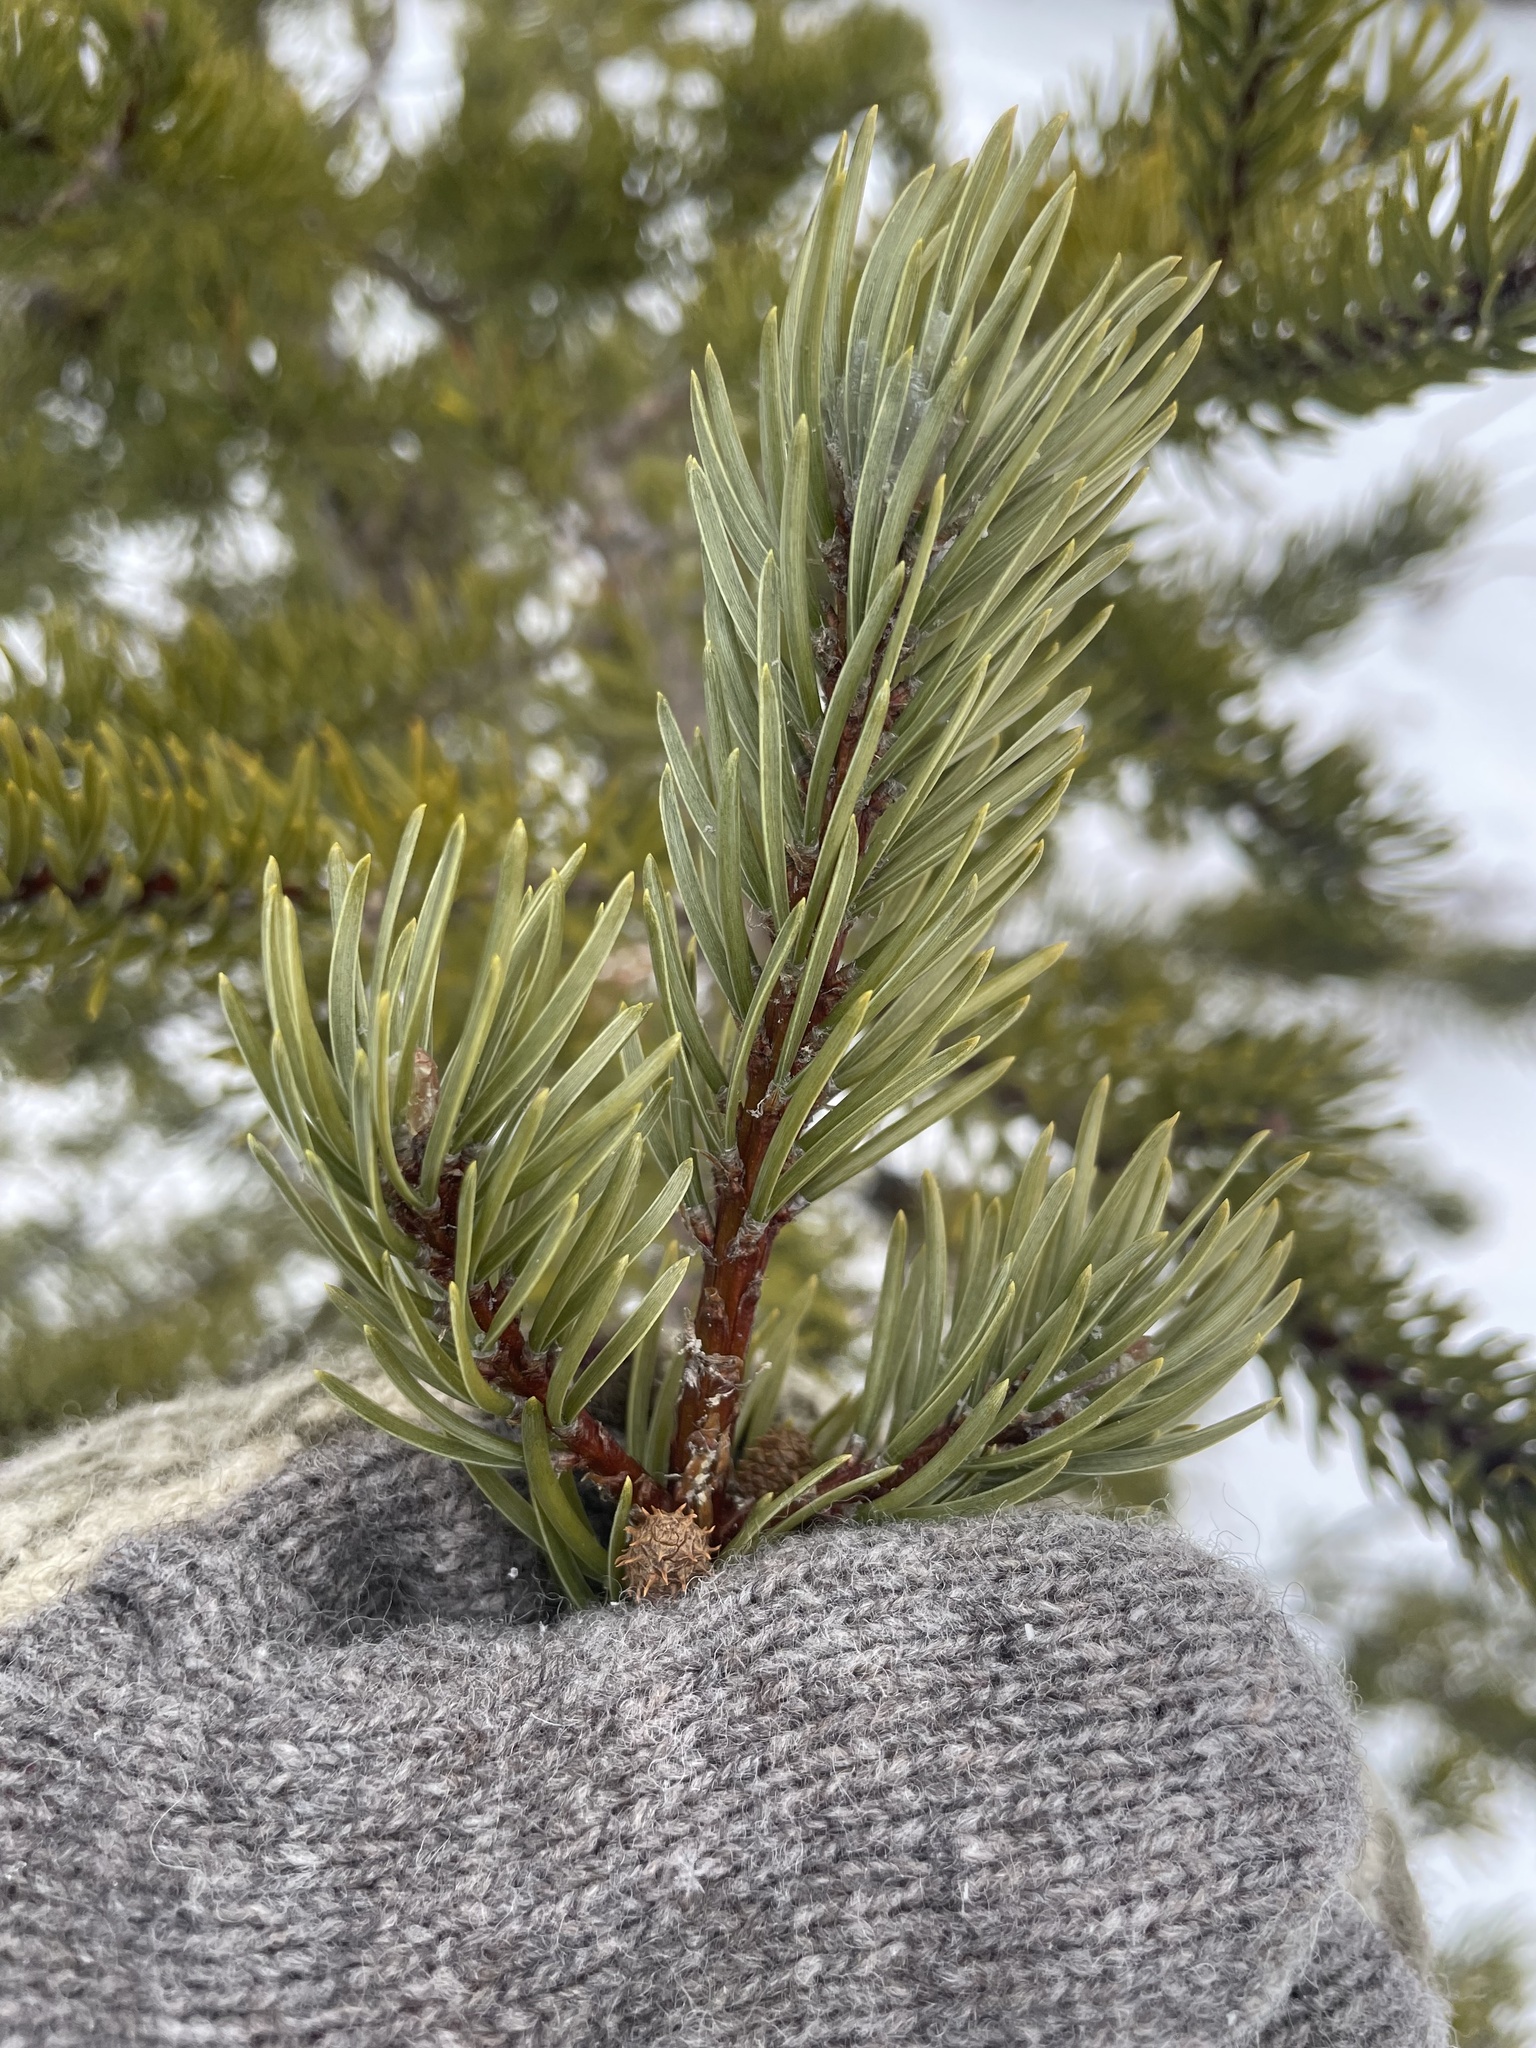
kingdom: Plantae
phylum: Tracheophyta
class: Pinopsida
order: Pinales
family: Pinaceae
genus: Pinus
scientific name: Pinus banksiana
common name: Jack pine
